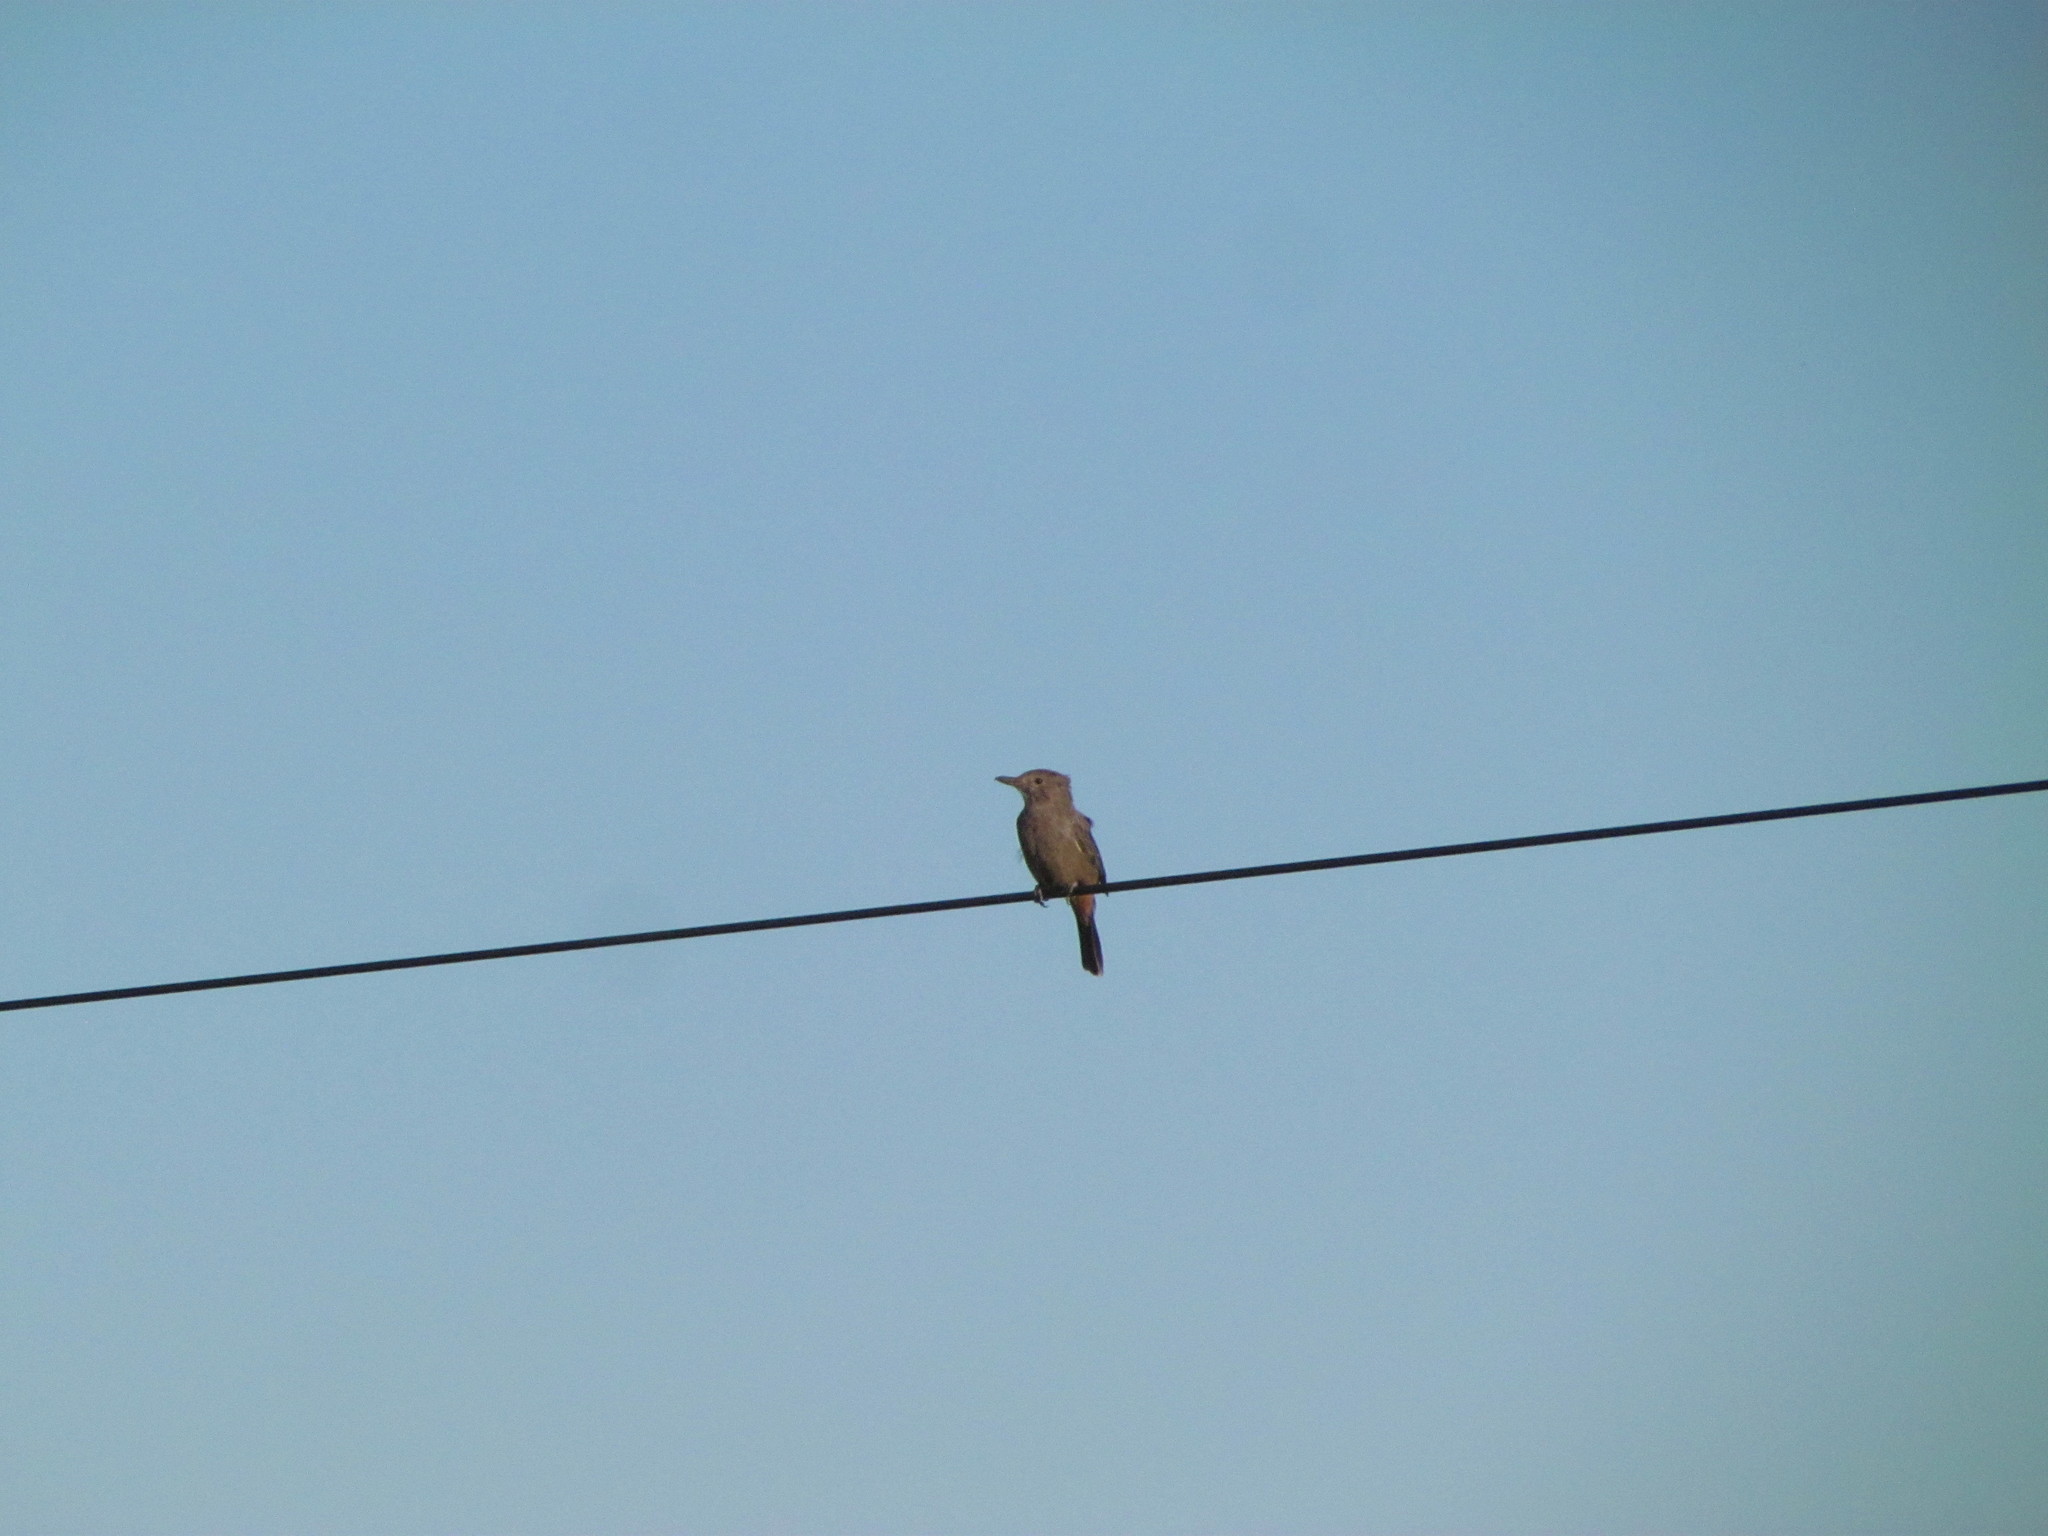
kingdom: Animalia
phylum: Chordata
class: Aves
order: Passeriformes
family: Tyrannidae
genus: Agriornis
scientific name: Agriornis lividus
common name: Great shrike-tyrant
